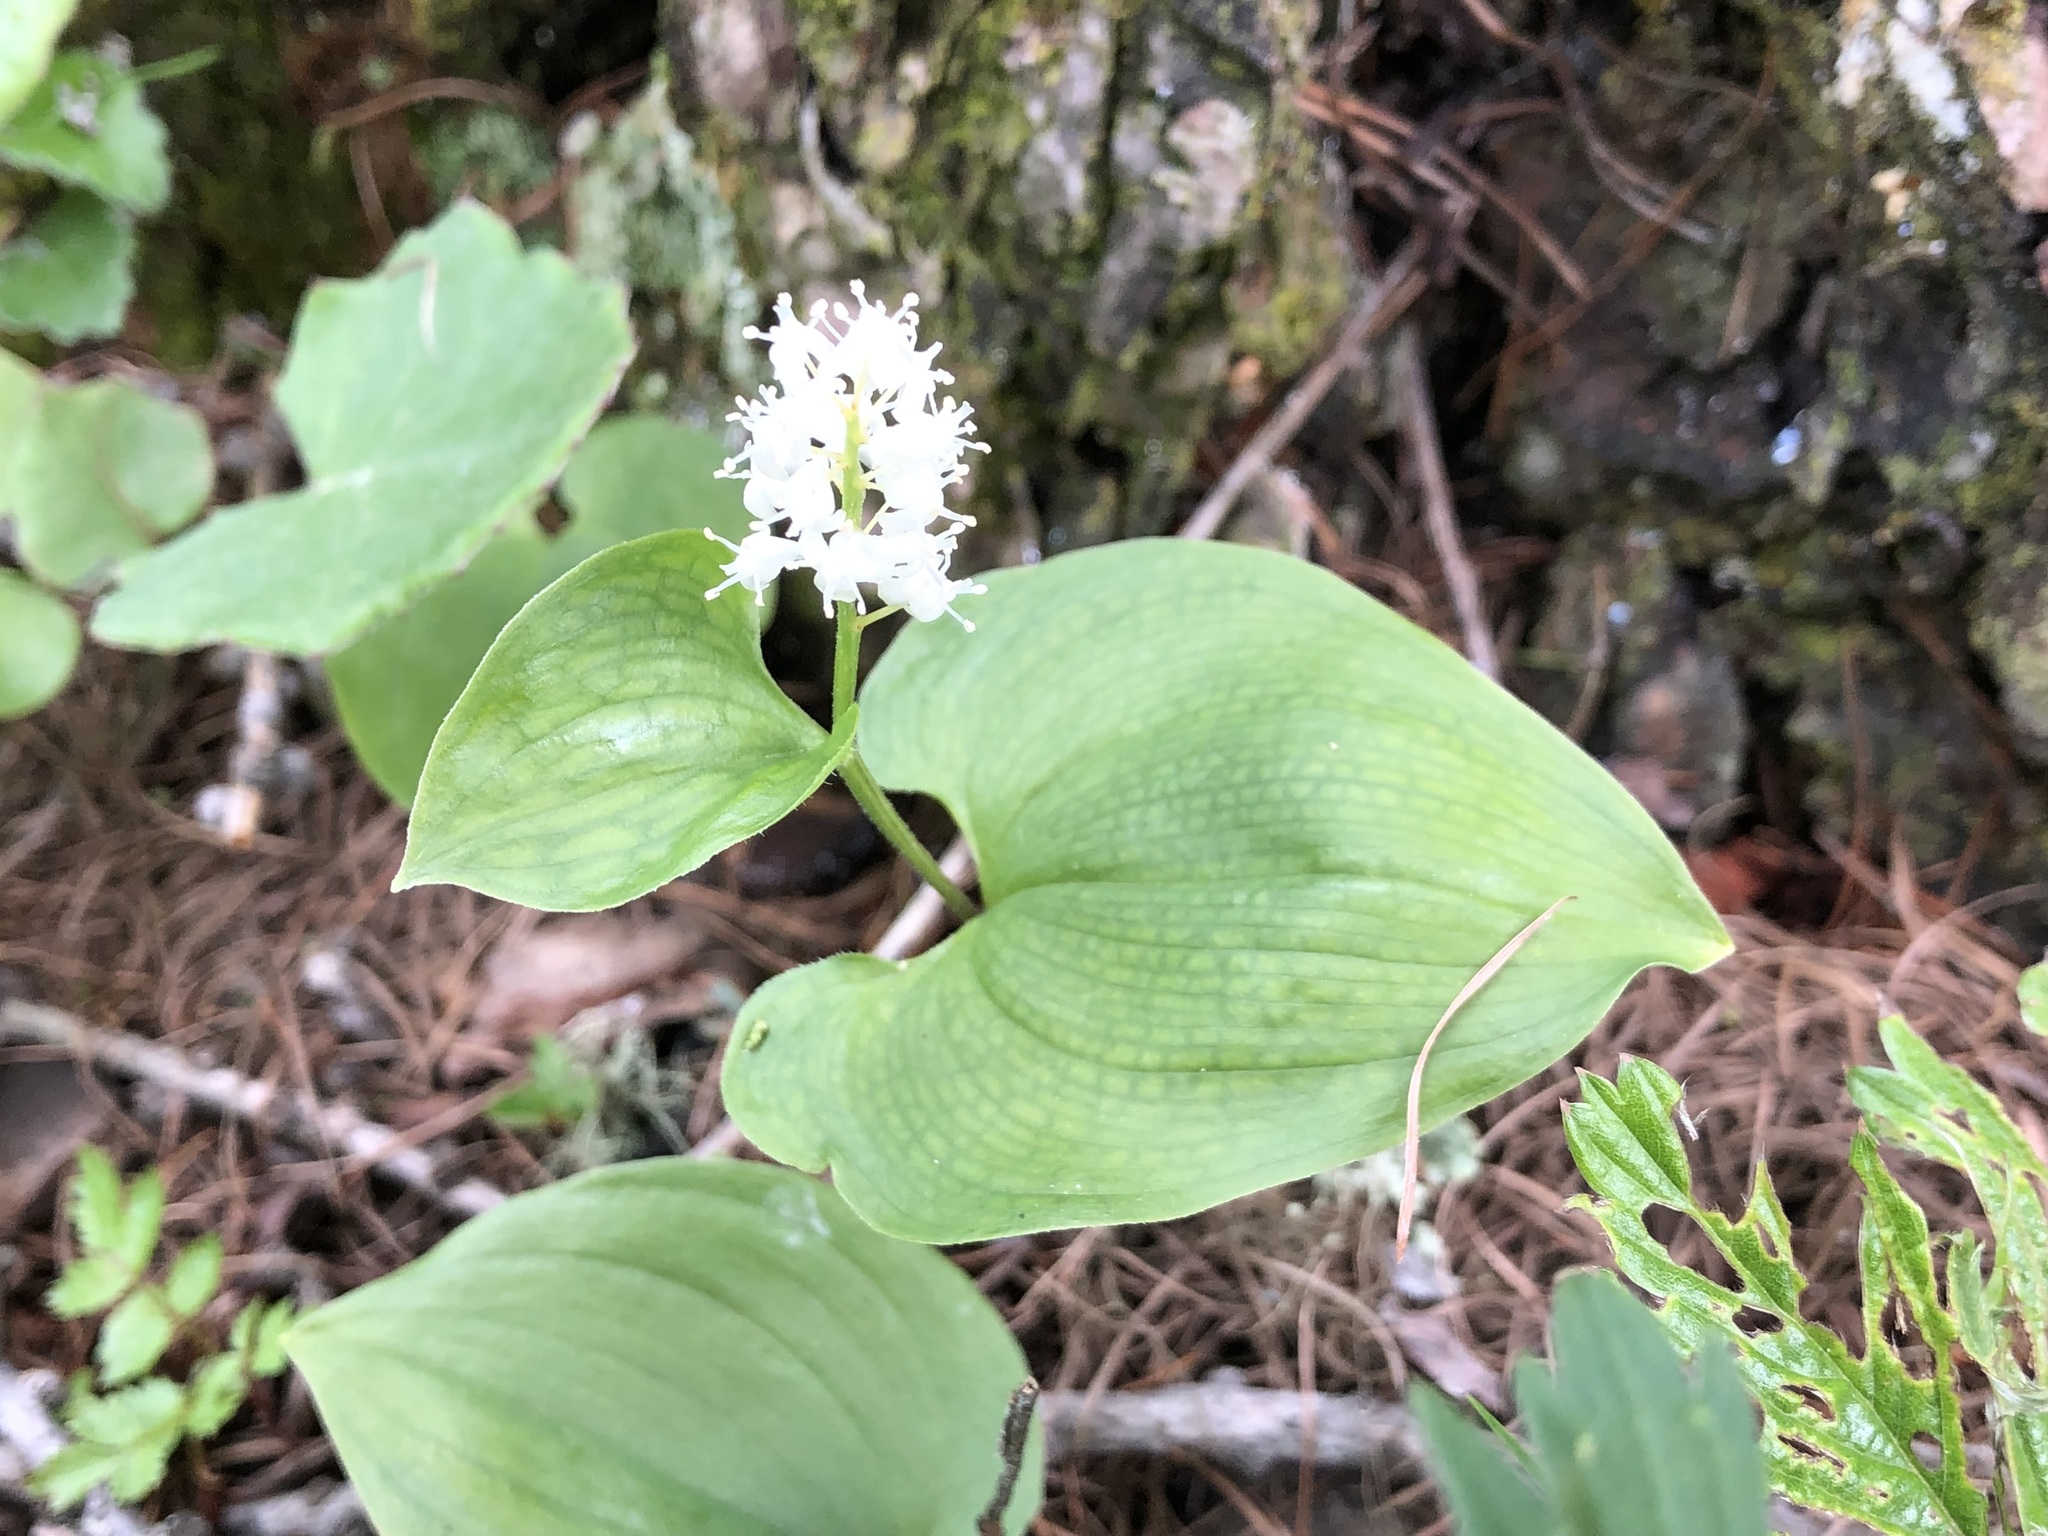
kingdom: Plantae
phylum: Tracheophyta
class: Liliopsida
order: Asparagales
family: Asparagaceae
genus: Maianthemum
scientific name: Maianthemum bifolium
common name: May lily
